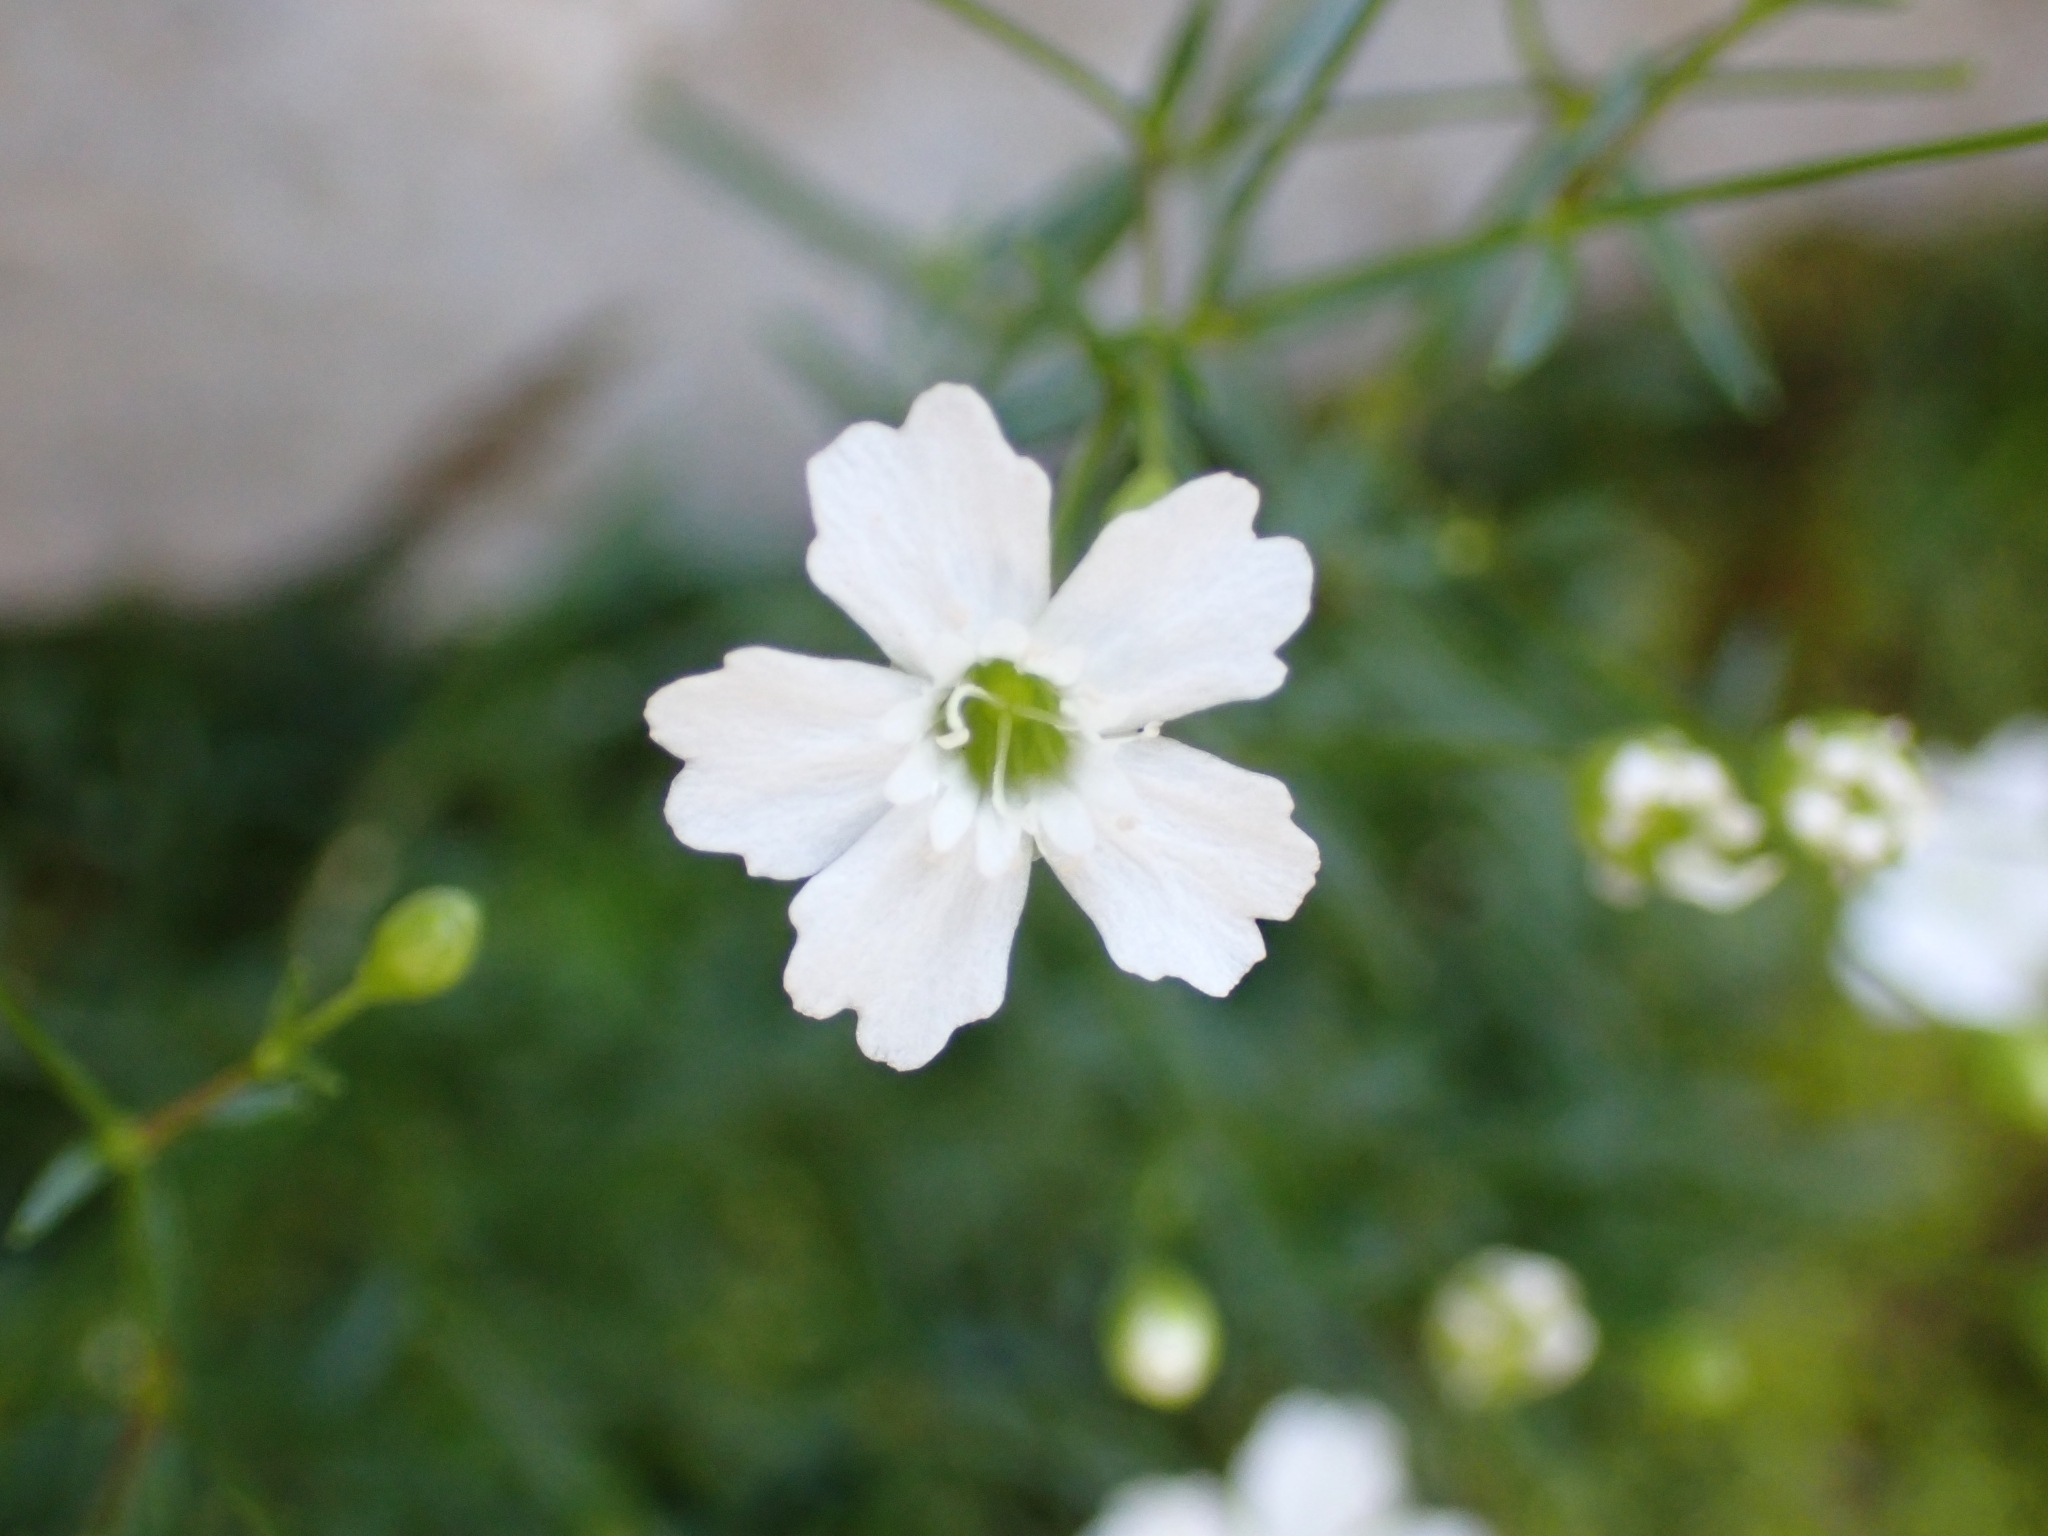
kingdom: Plantae
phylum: Tracheophyta
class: Magnoliopsida
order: Caryophyllales
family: Caryophyllaceae
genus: Heliosperma
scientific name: Heliosperma pusillum
